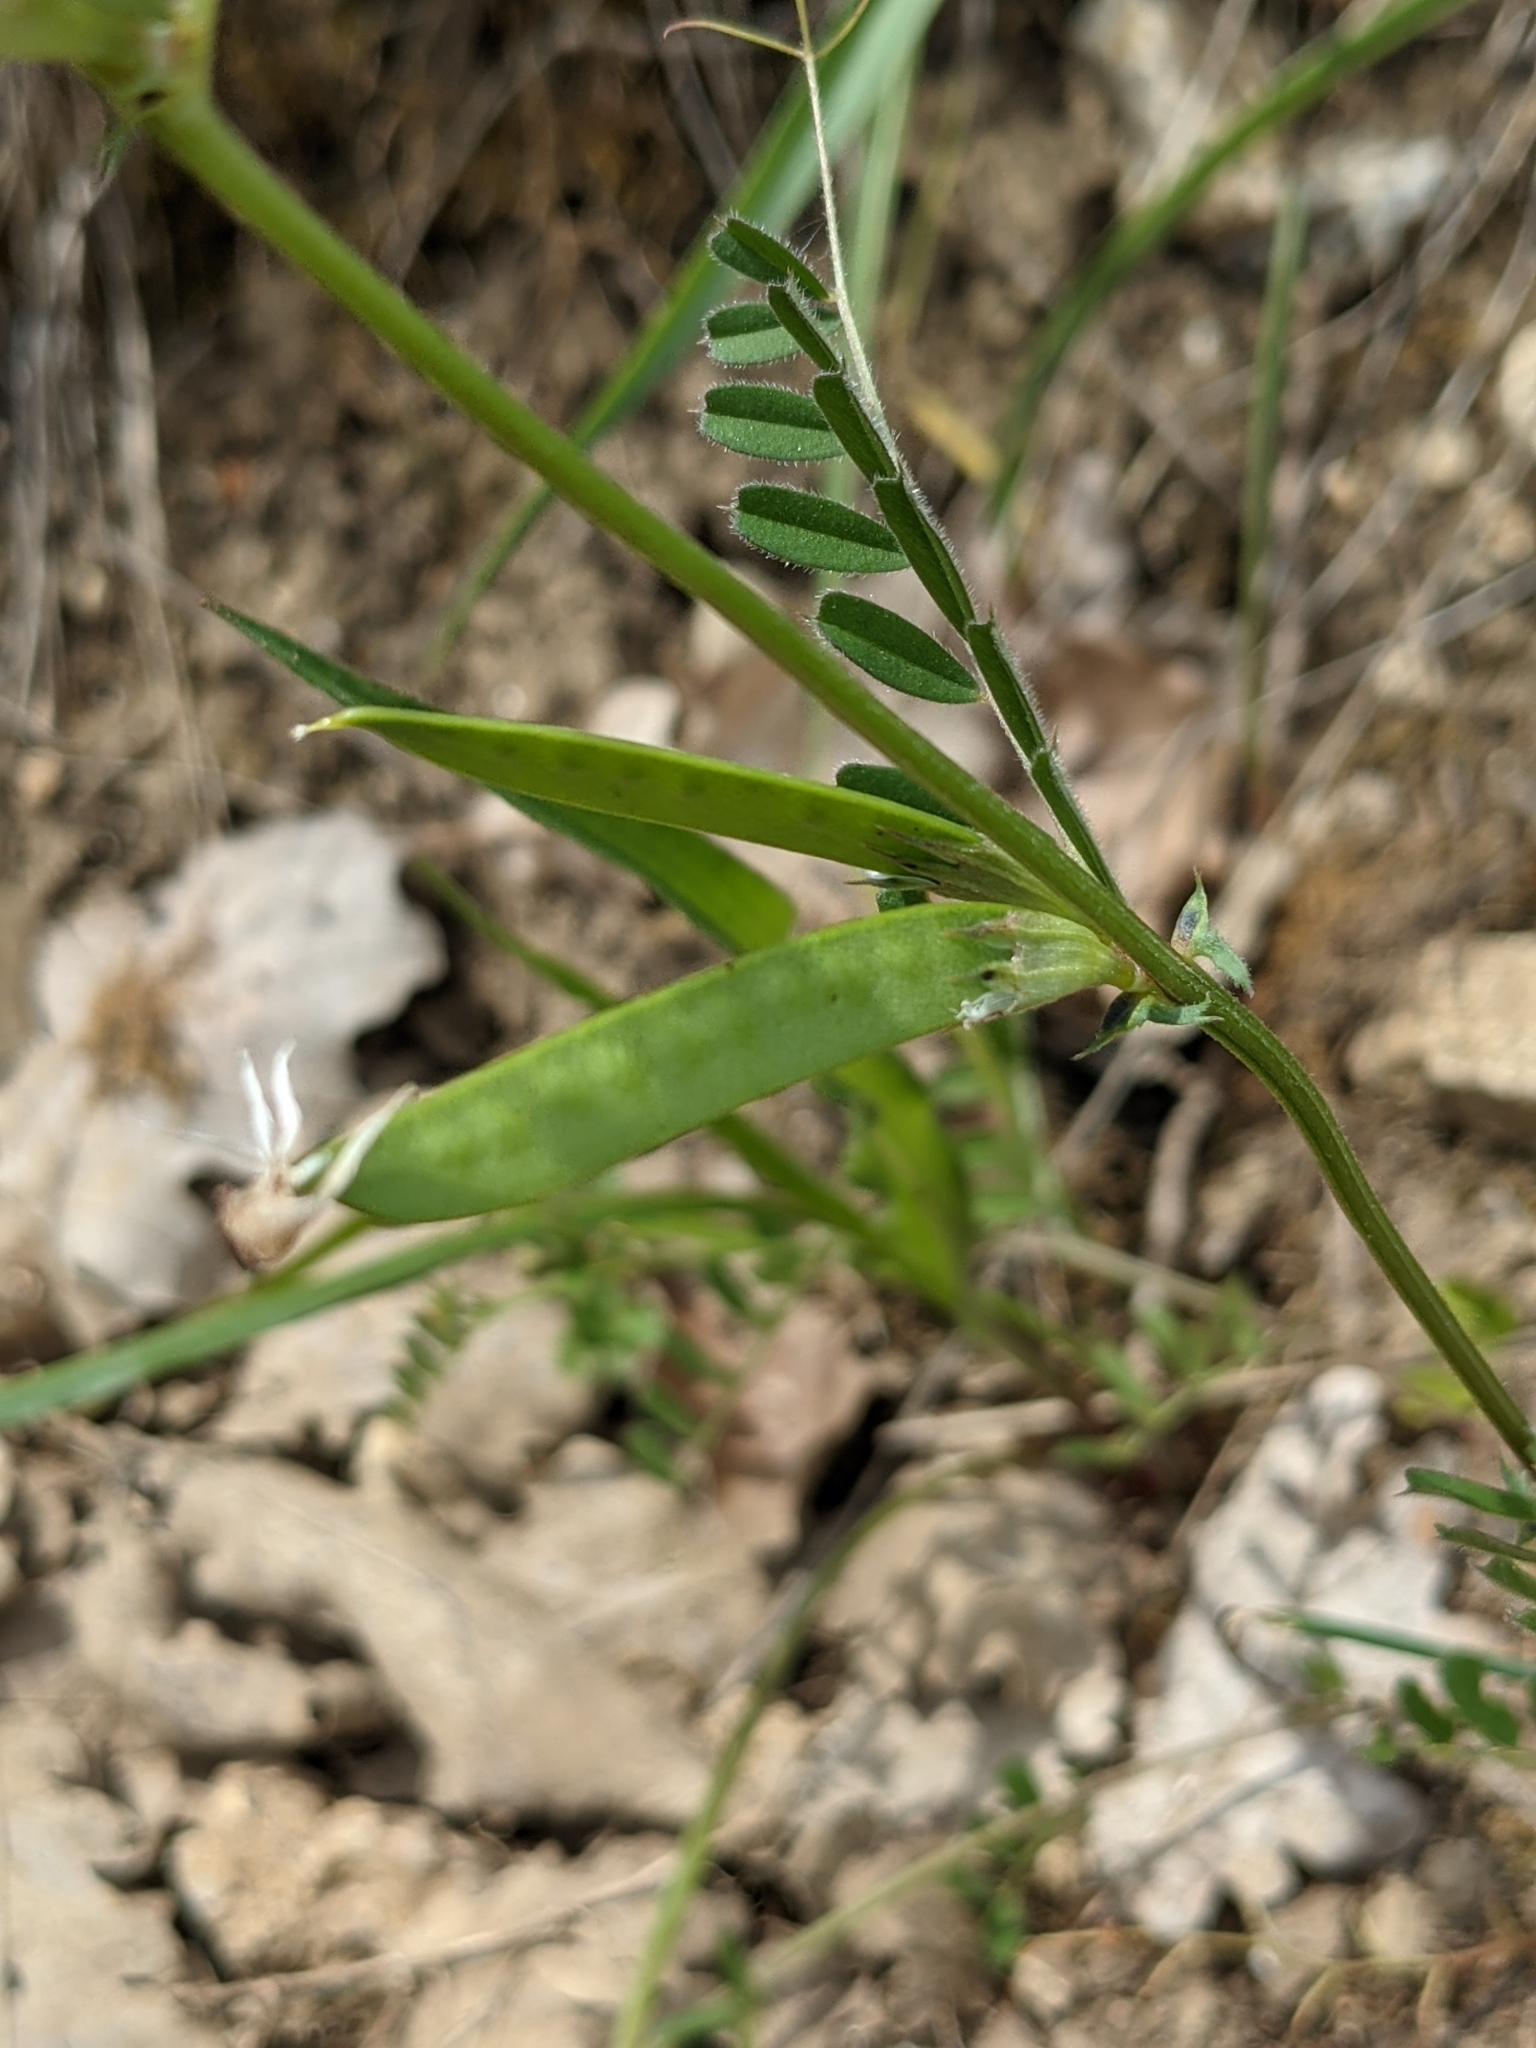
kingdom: Plantae
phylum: Tracheophyta
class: Magnoliopsida
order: Fabales
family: Fabaceae
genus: Vicia
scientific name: Vicia sativa
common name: Garden vetch
